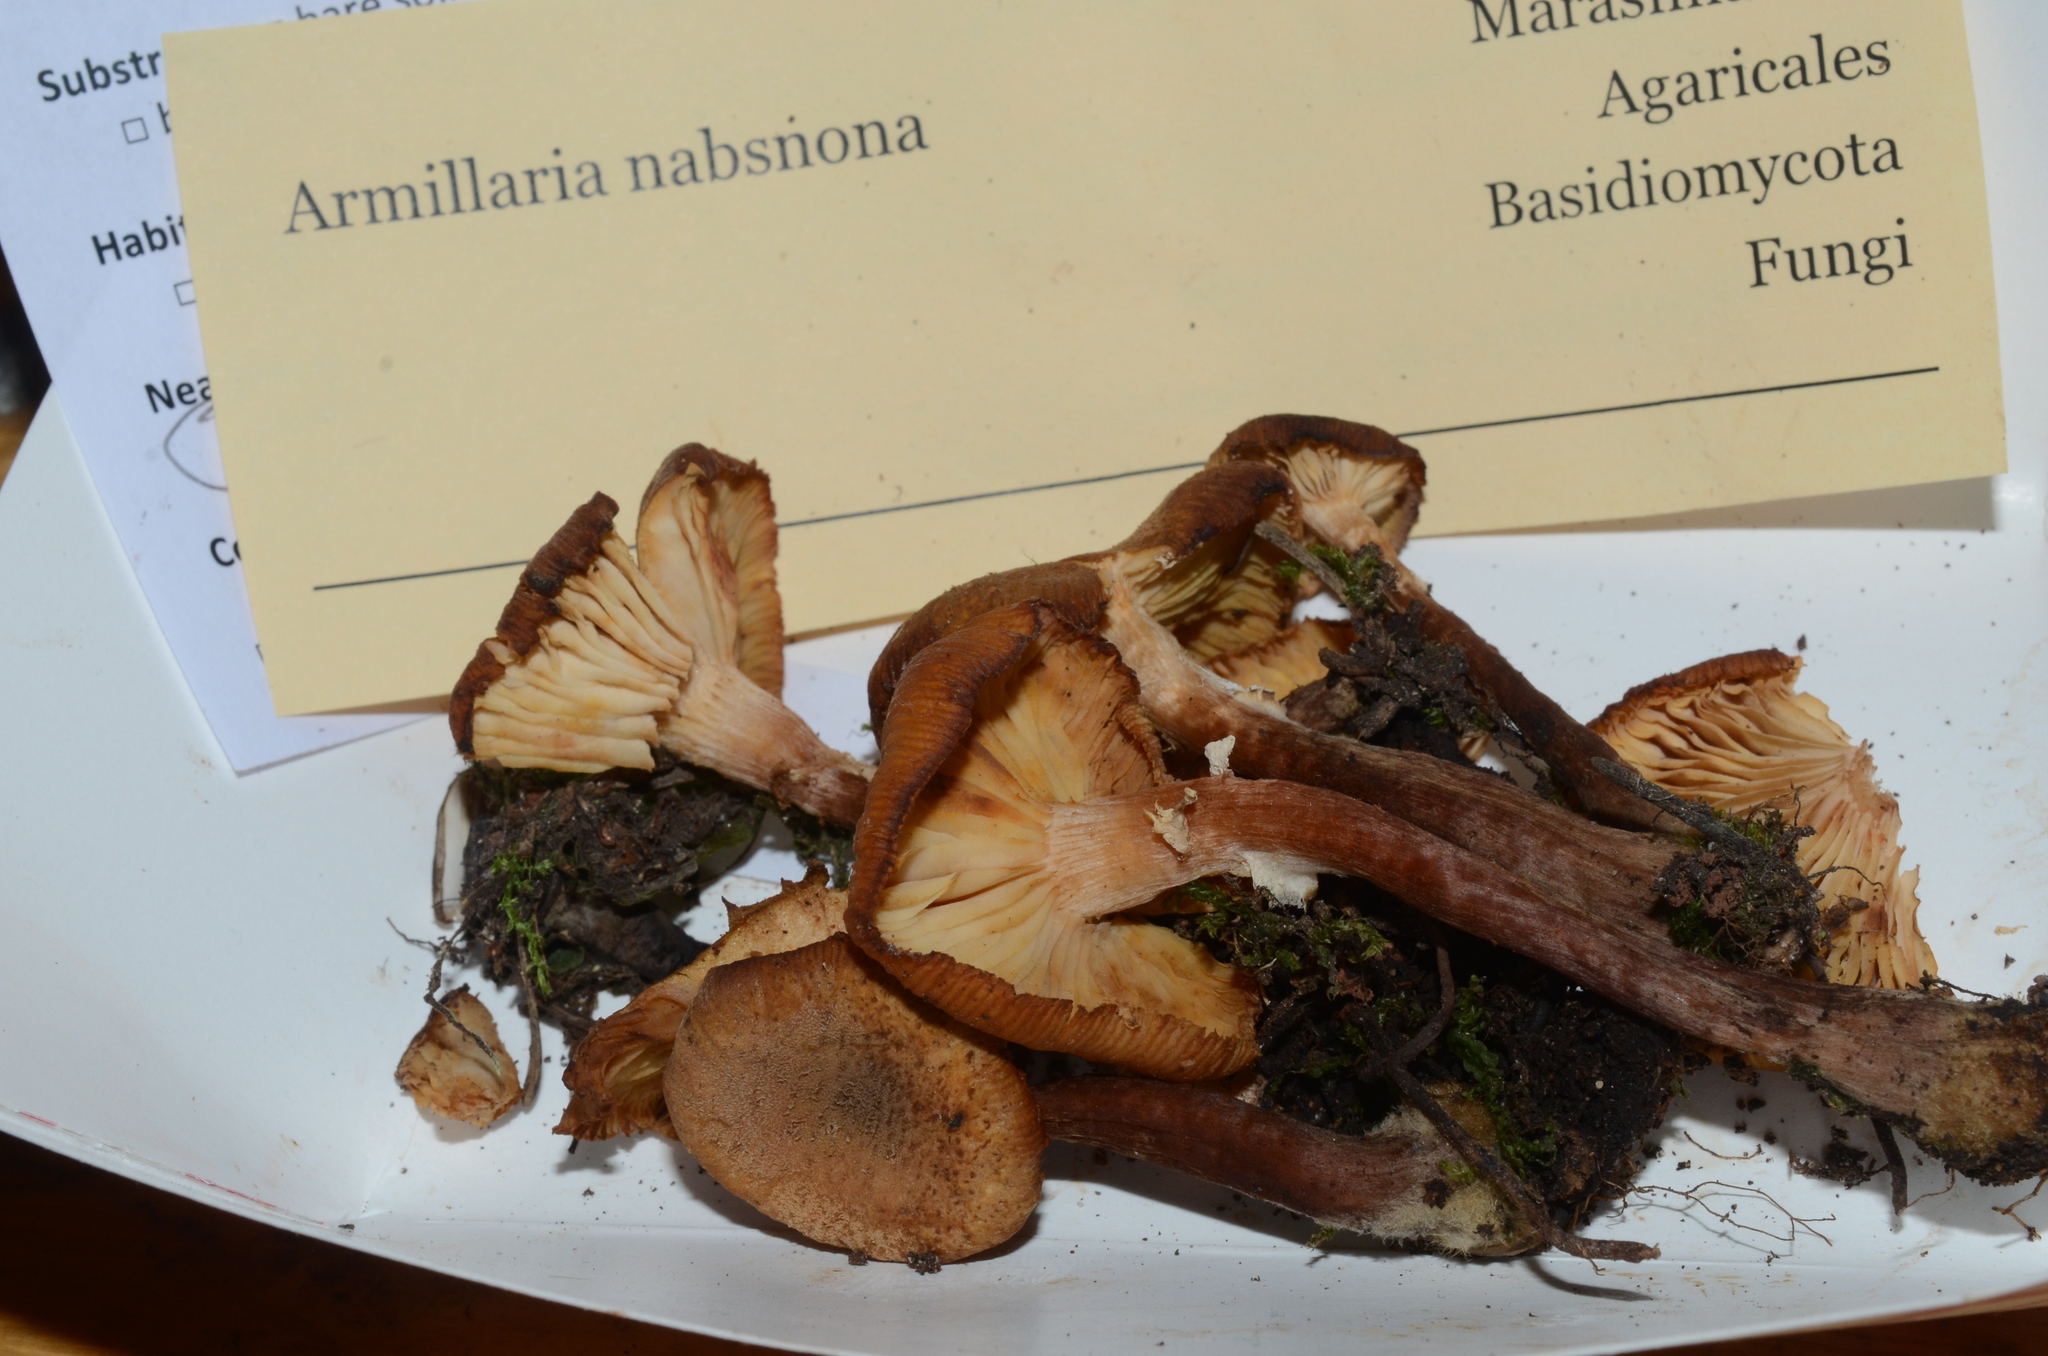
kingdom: Fungi
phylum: Basidiomycota
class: Agaricomycetes
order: Agaricales
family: Physalacriaceae
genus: Armillaria
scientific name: Armillaria nabsnona
